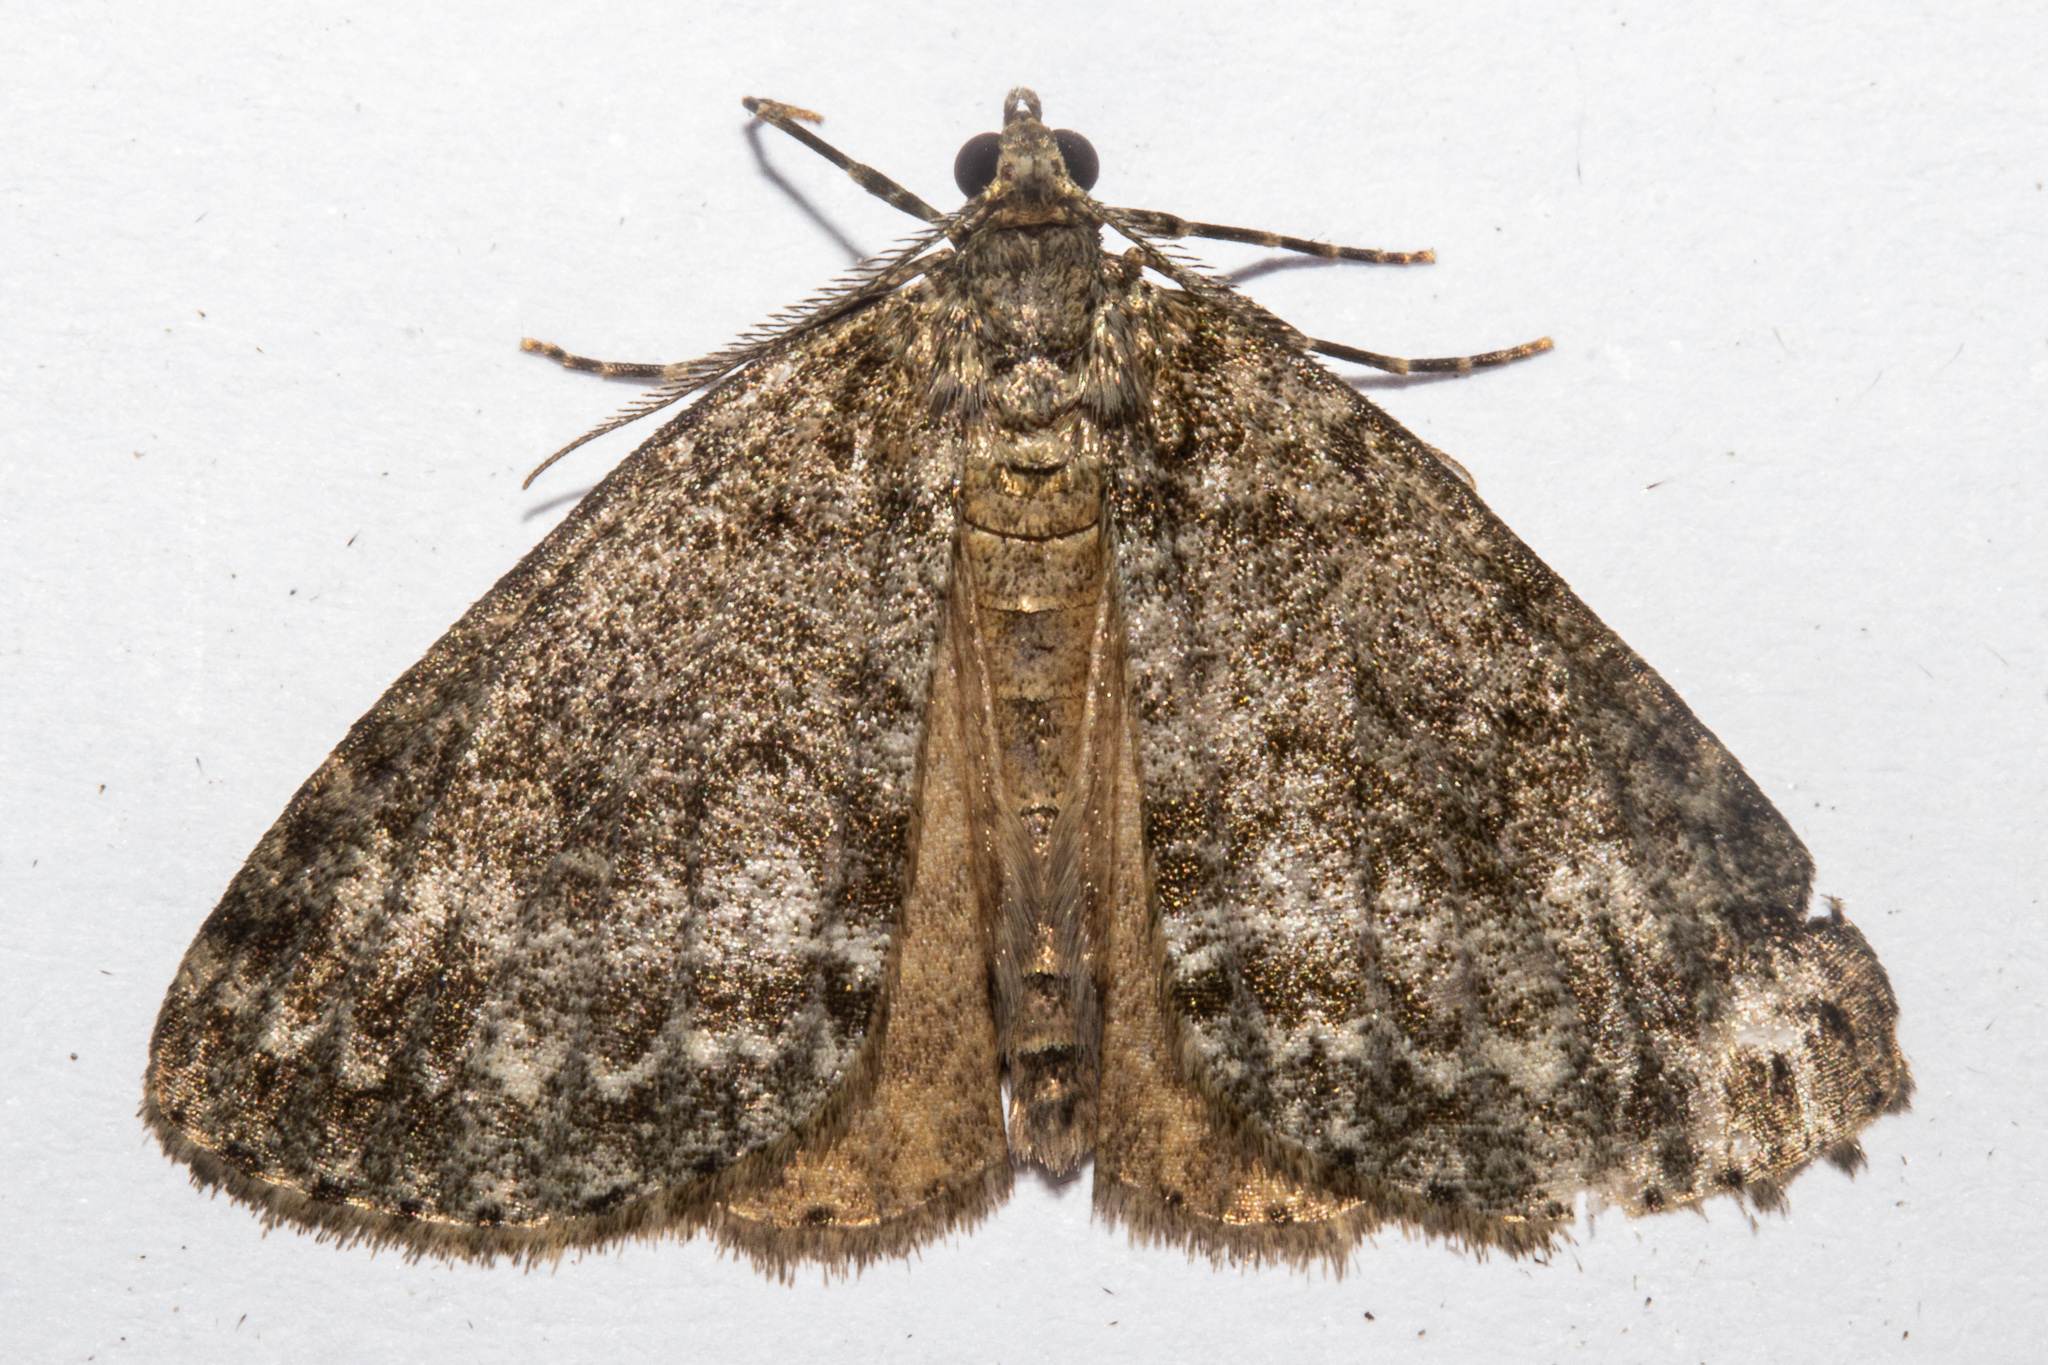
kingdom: Animalia
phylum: Arthropoda
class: Insecta
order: Lepidoptera
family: Geometridae
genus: Pseudocoremia
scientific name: Pseudocoremia indistincta
